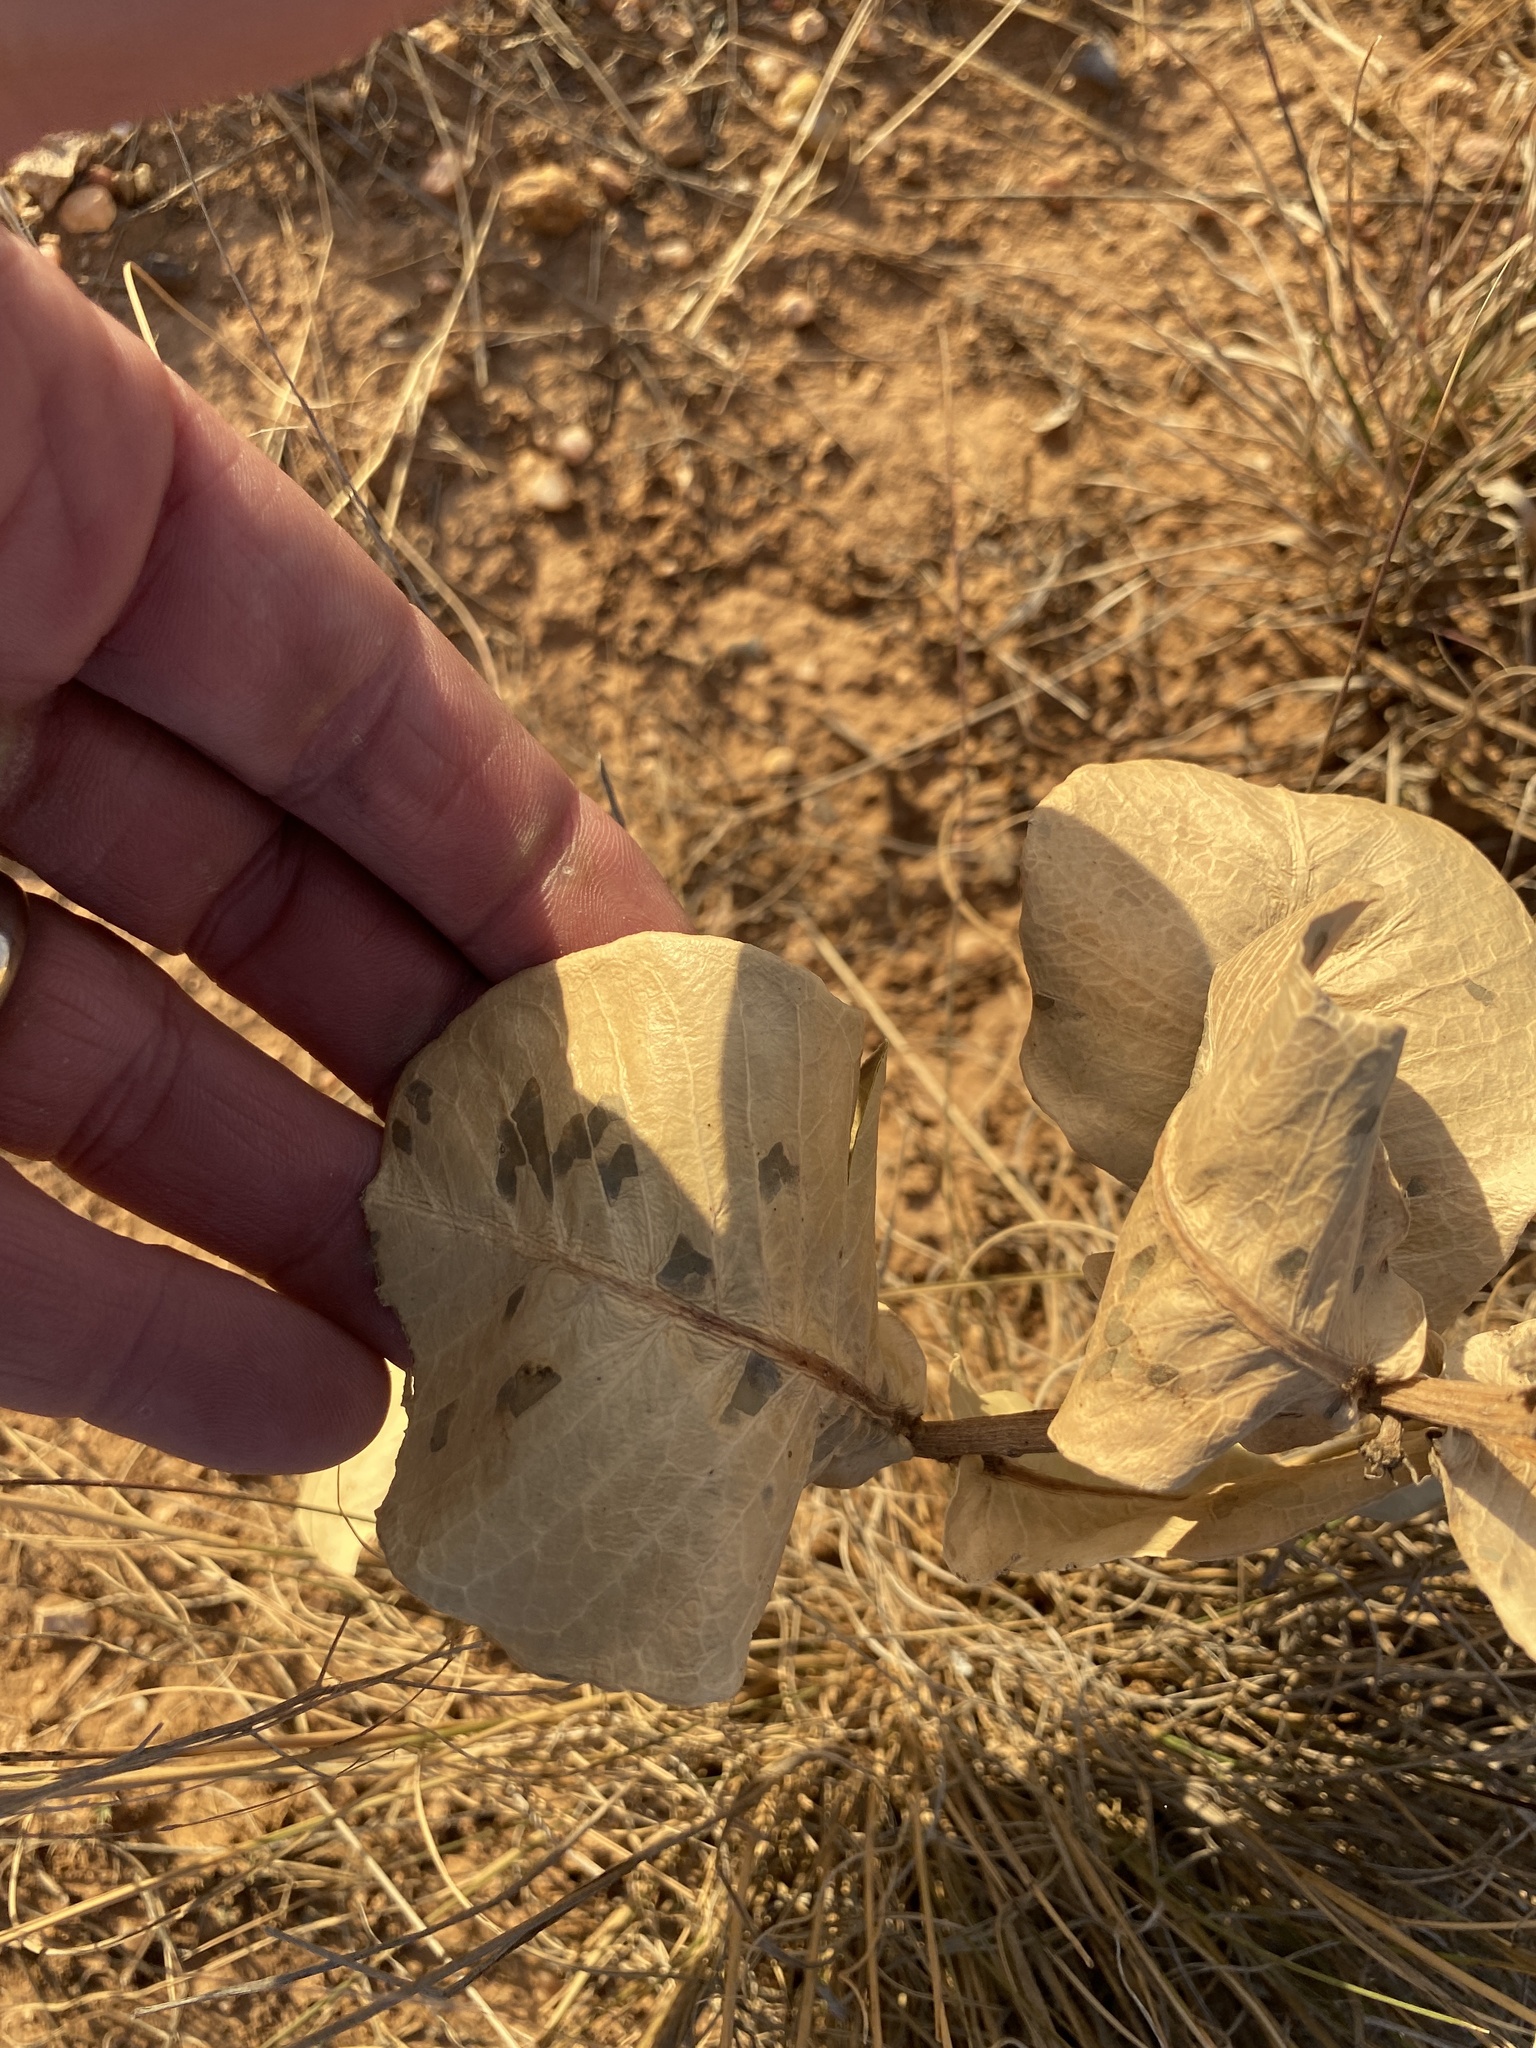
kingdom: Plantae
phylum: Tracheophyta
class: Magnoliopsida
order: Gentianales
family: Apocynaceae
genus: Asclepias
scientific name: Asclepias latifolia
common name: Broadleaf milkweed
